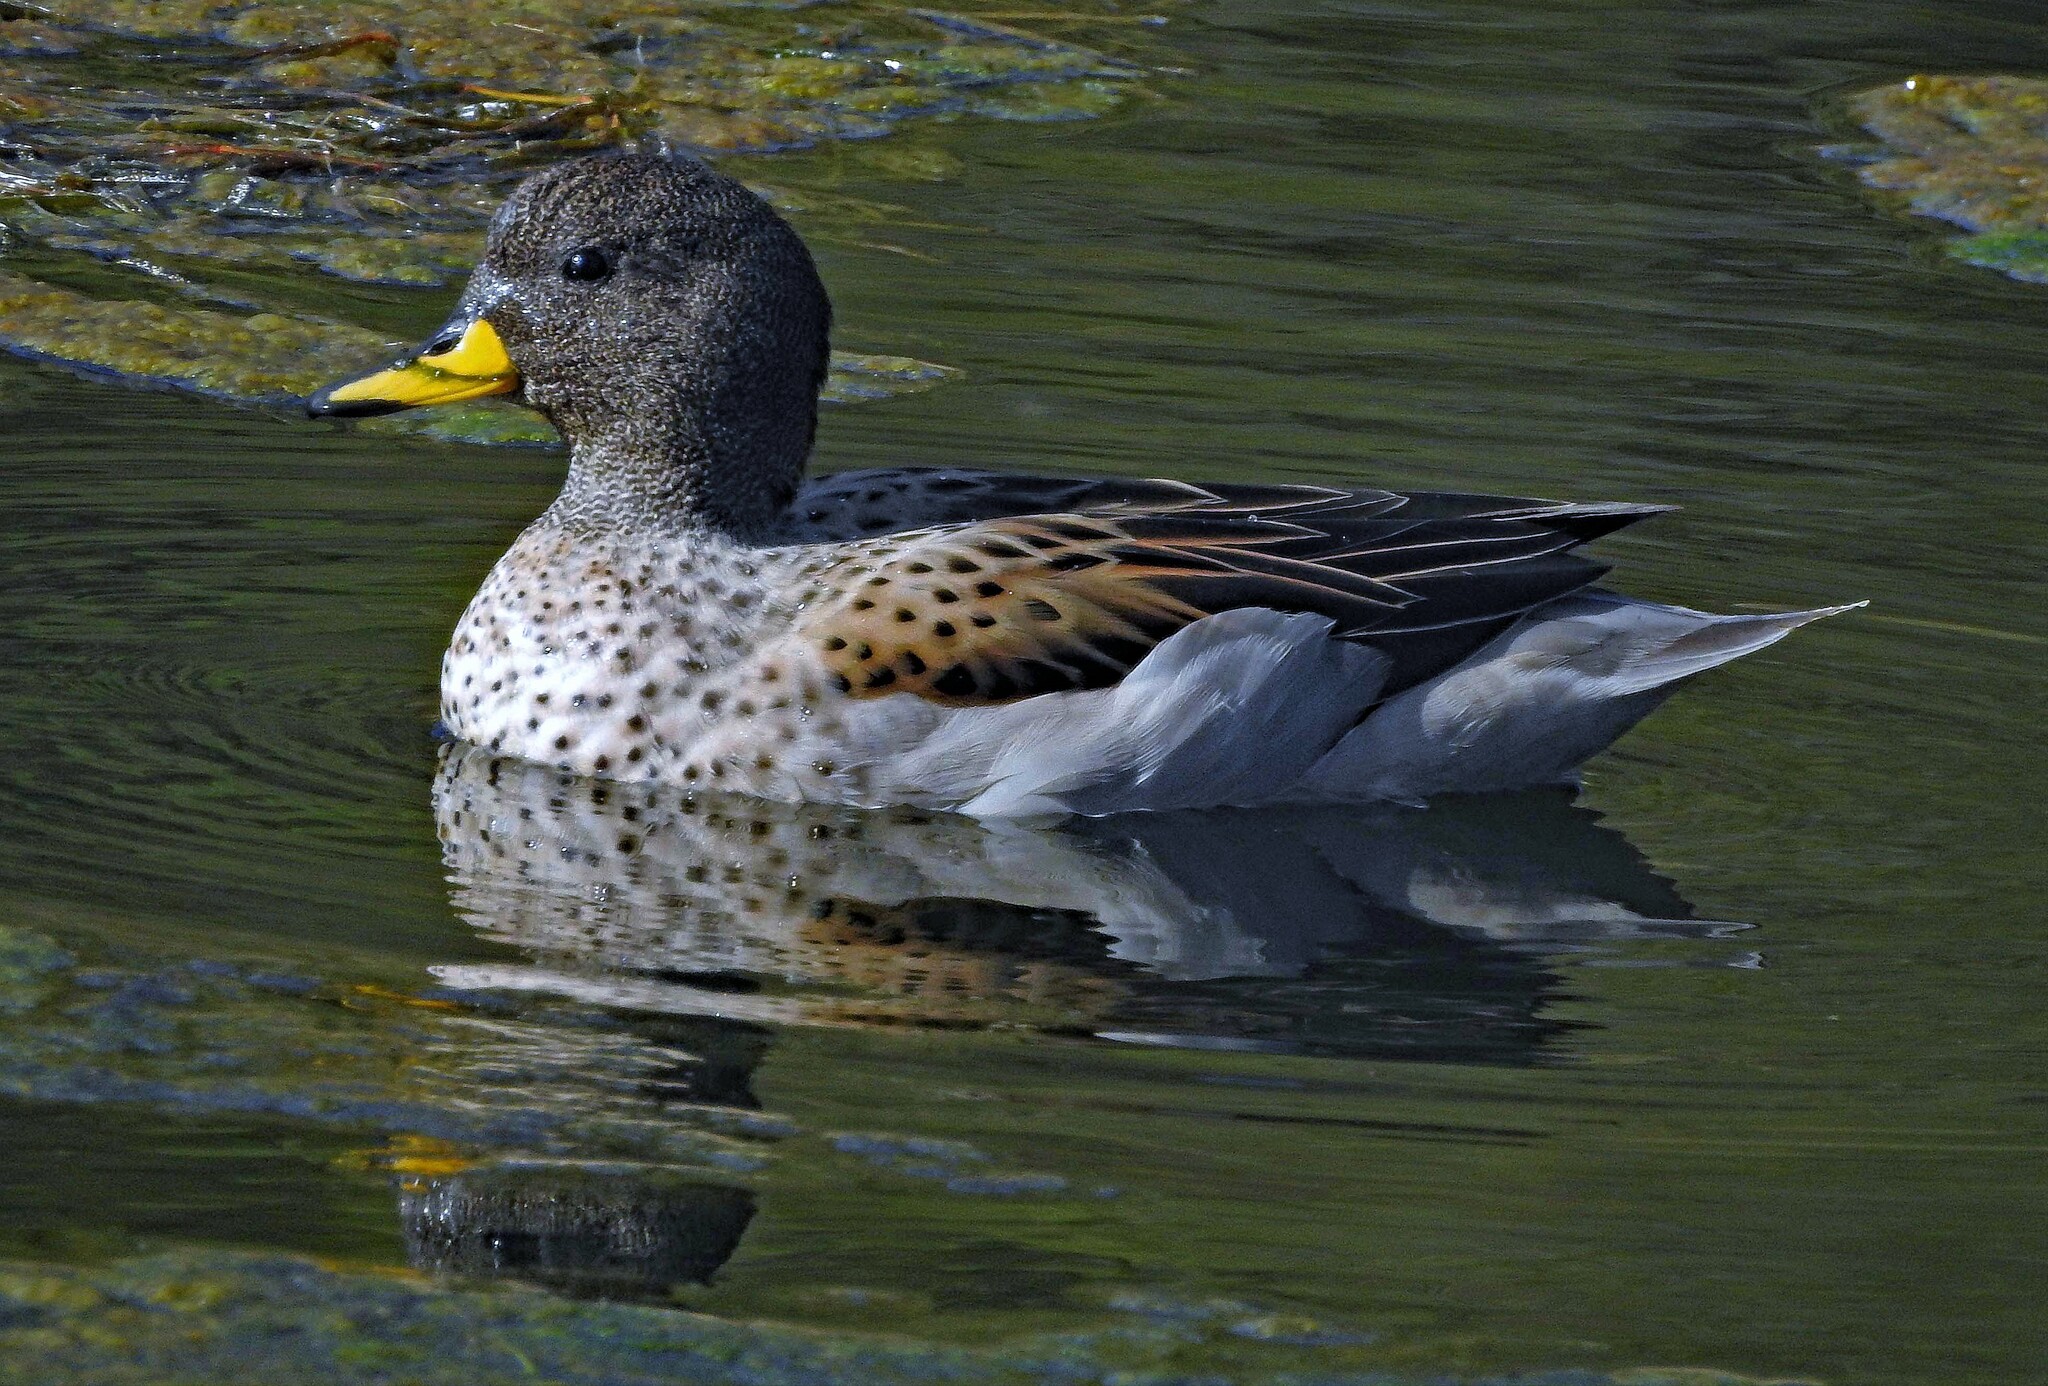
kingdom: Animalia
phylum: Chordata
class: Aves
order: Anseriformes
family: Anatidae
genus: Anas
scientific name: Anas flavirostris
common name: Yellow-billed teal
